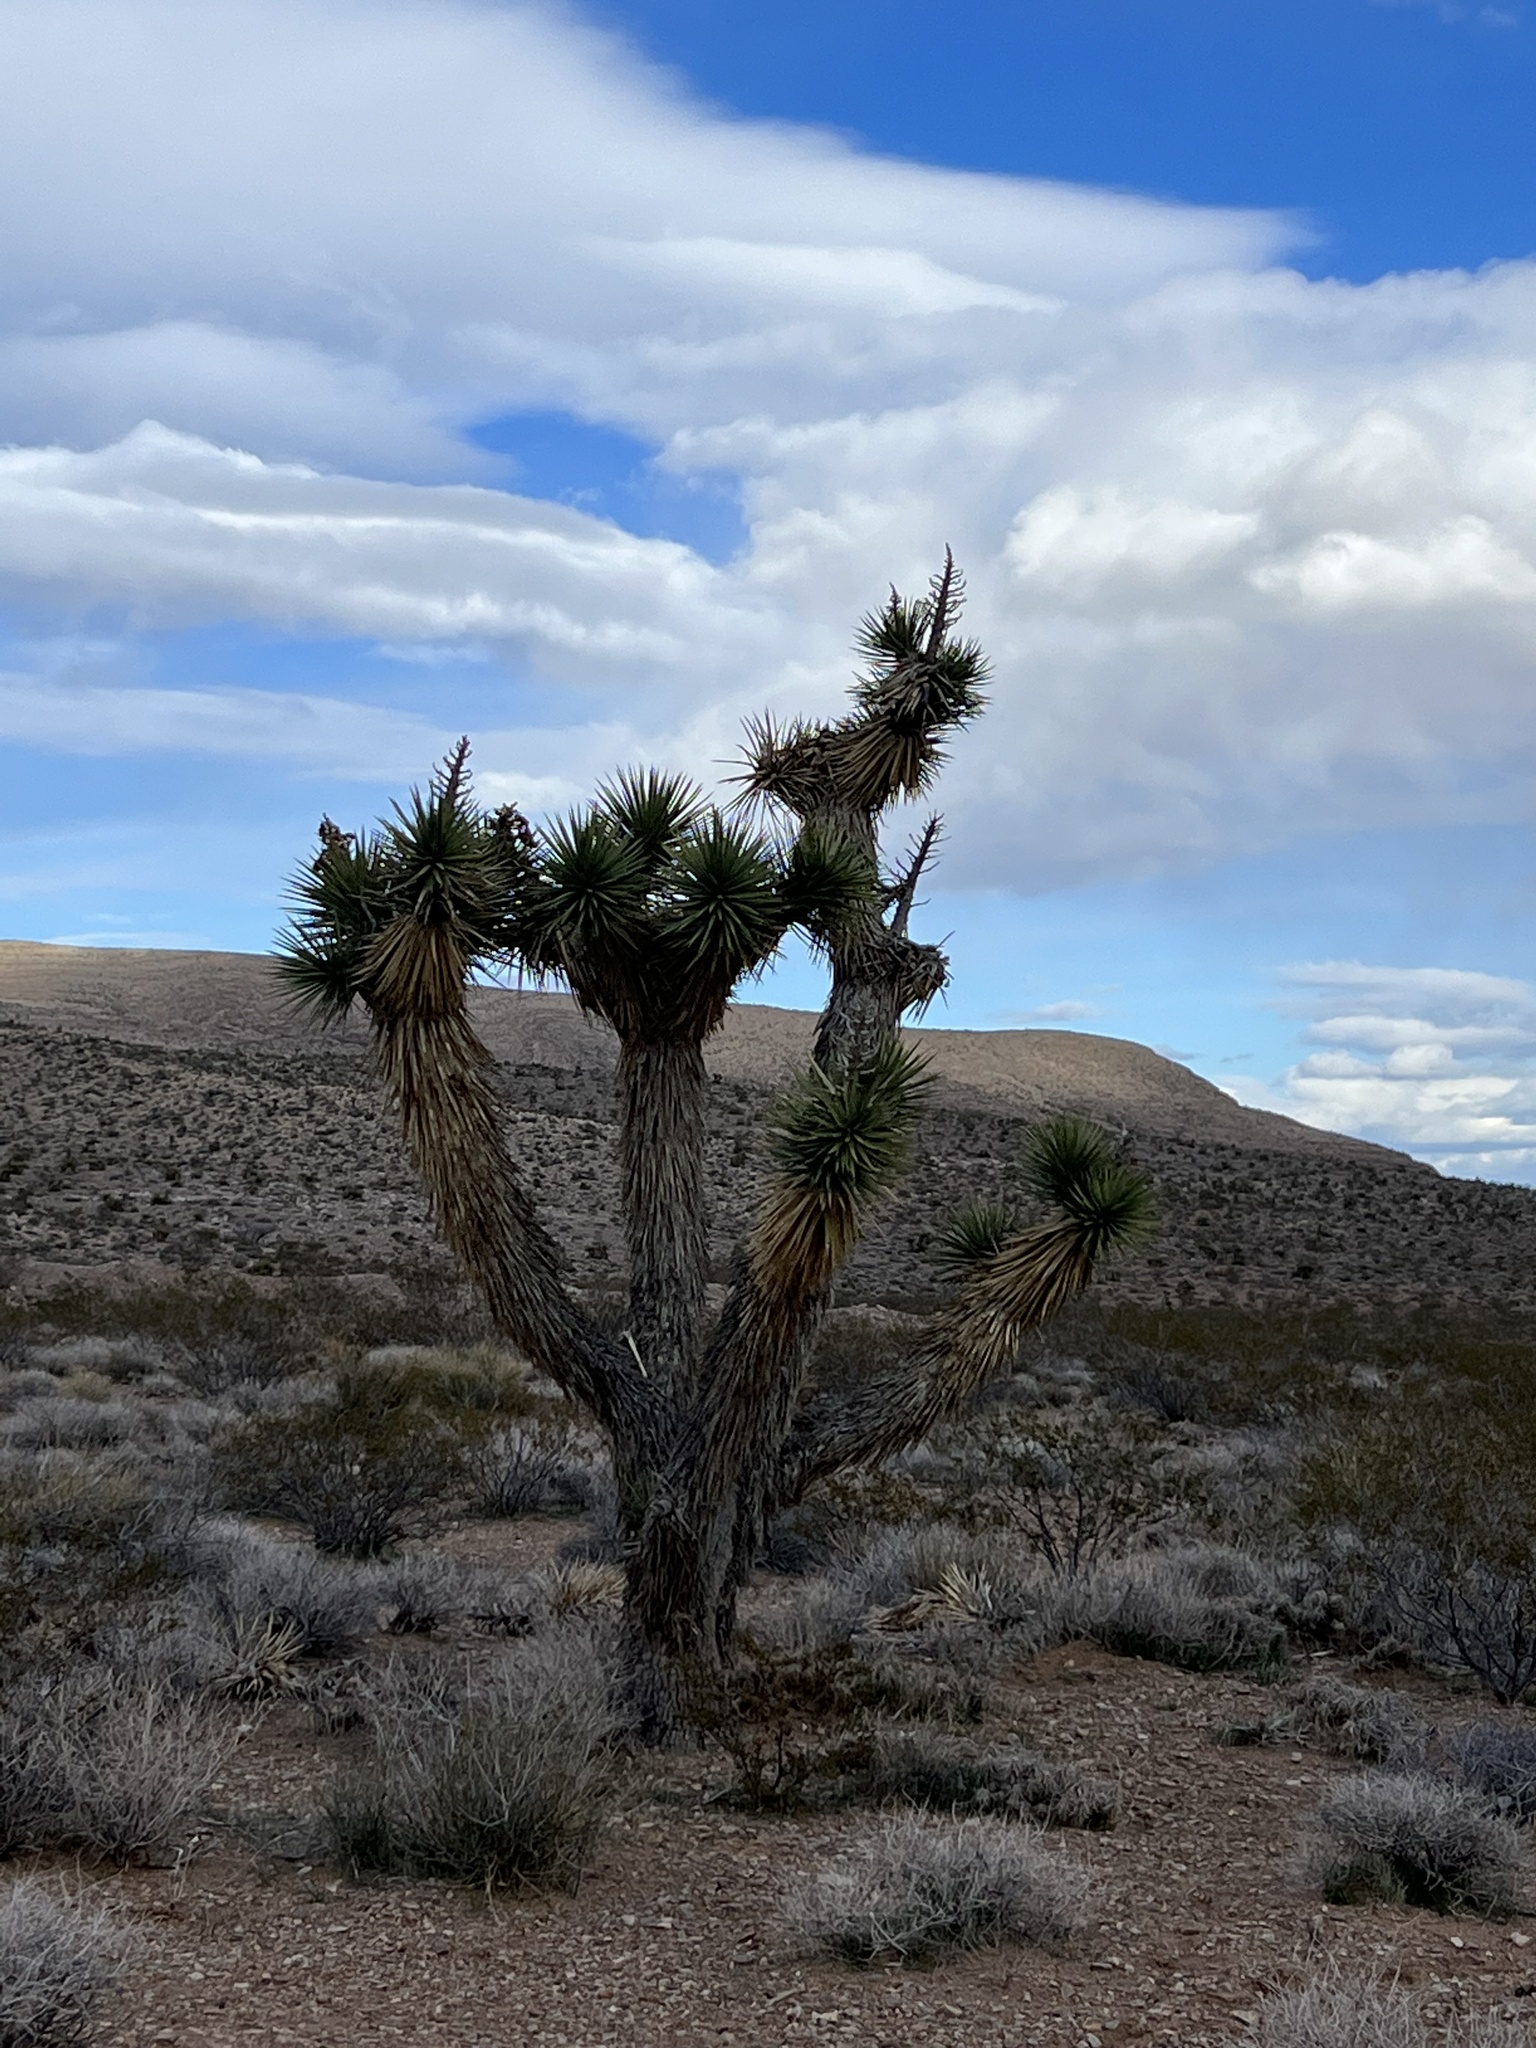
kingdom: Plantae
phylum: Tracheophyta
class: Liliopsida
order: Asparagales
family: Asparagaceae
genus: Yucca
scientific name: Yucca brevifolia
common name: Joshua tree
